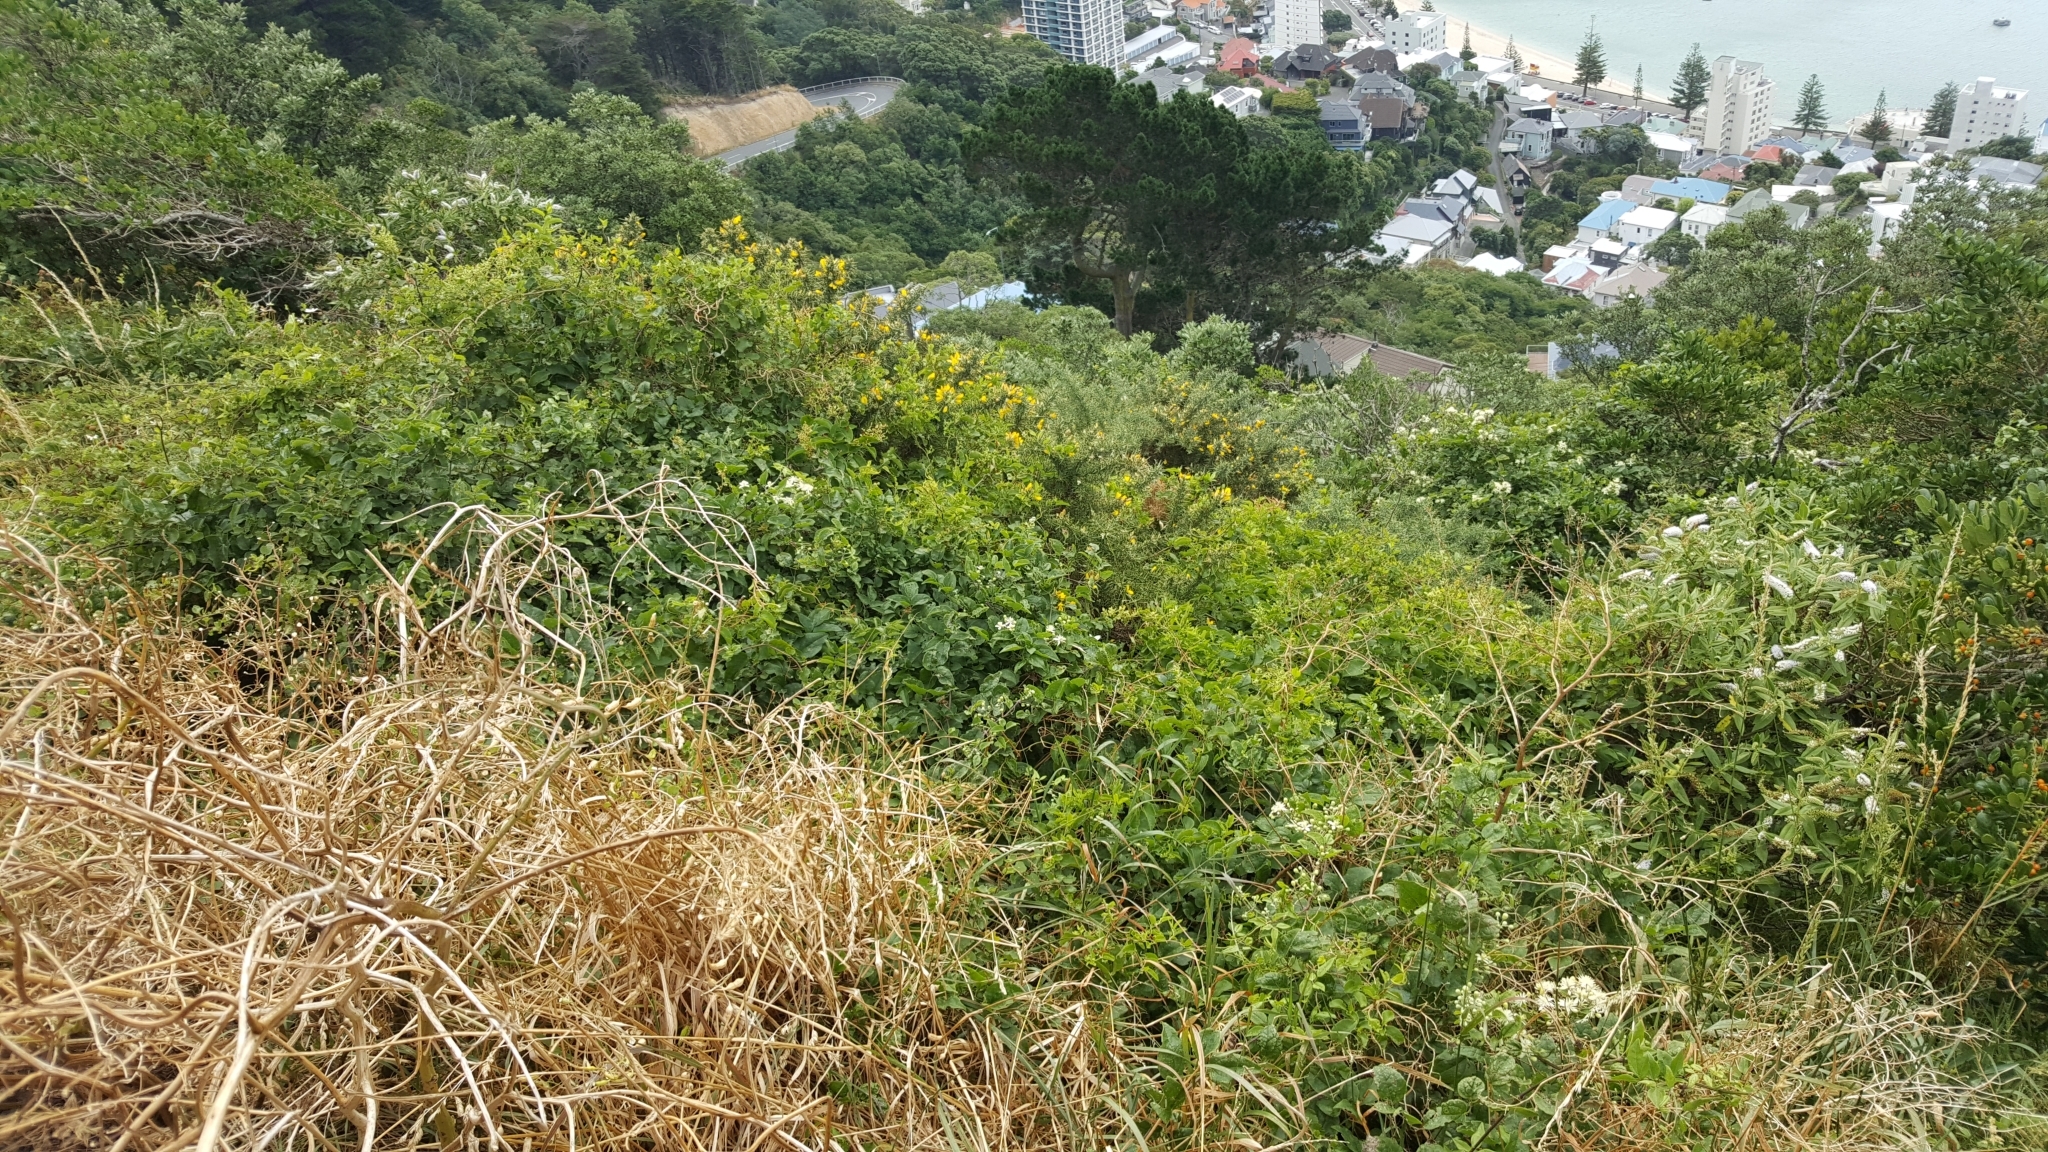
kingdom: Plantae
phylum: Tracheophyta
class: Magnoliopsida
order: Ranunculales
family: Ranunculaceae
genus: Clematis
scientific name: Clematis vitalba
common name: Evergreen clematis
